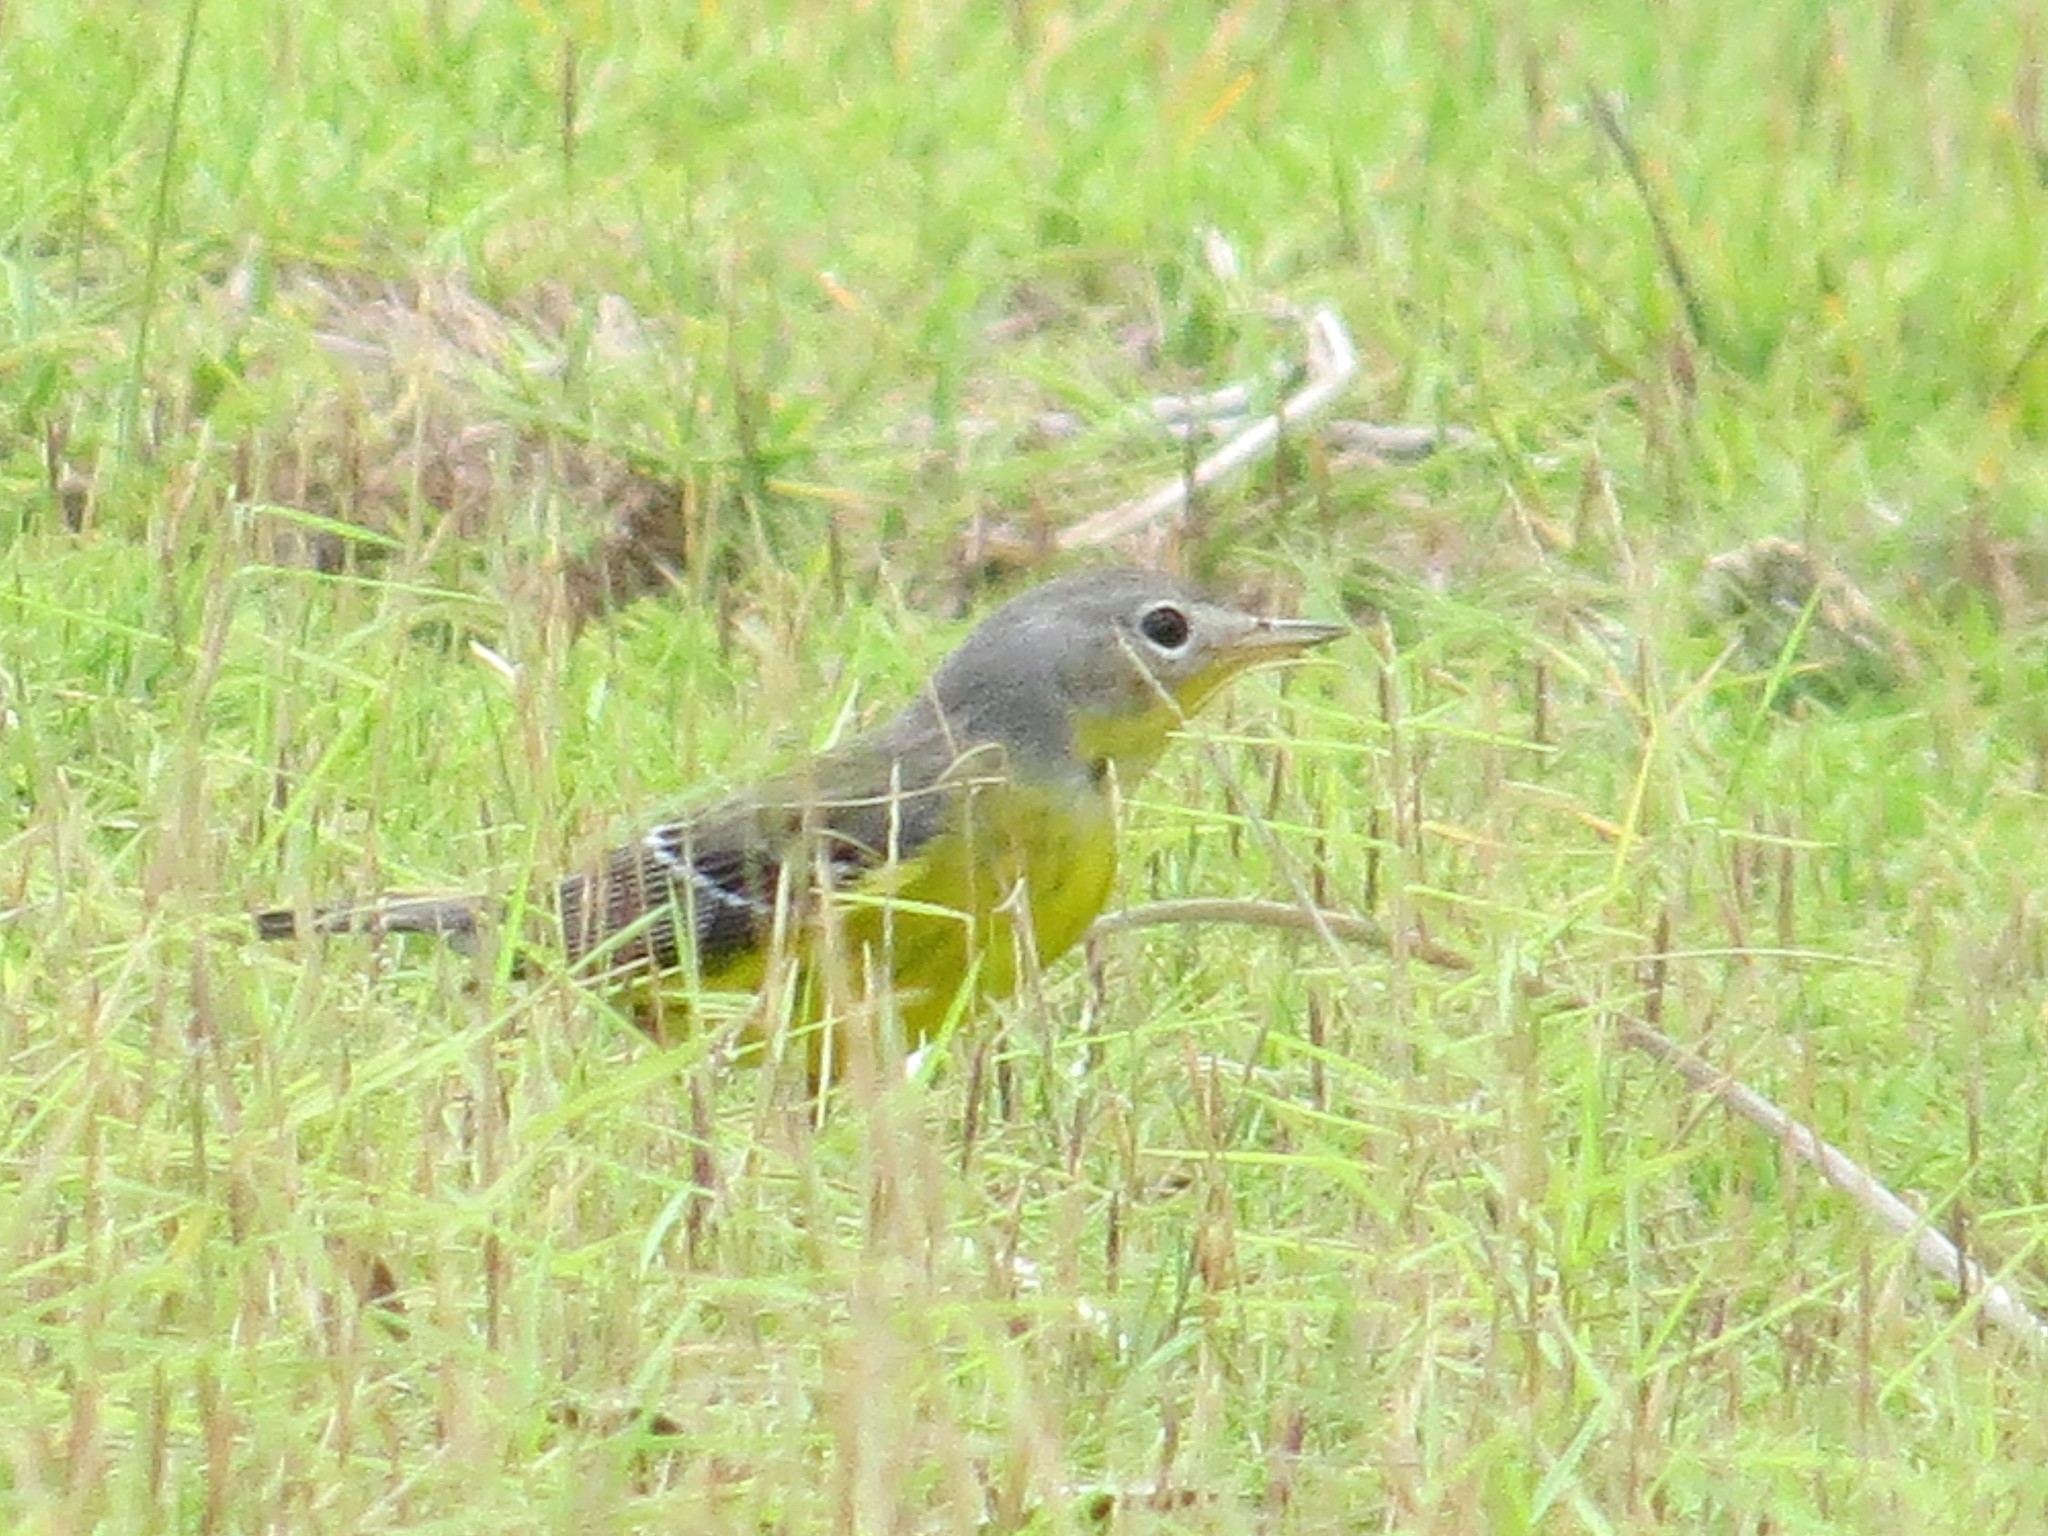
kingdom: Animalia
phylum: Chordata
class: Aves
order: Passeriformes
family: Parulidae
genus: Setophaga
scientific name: Setophaga magnolia
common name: Magnolia warbler
